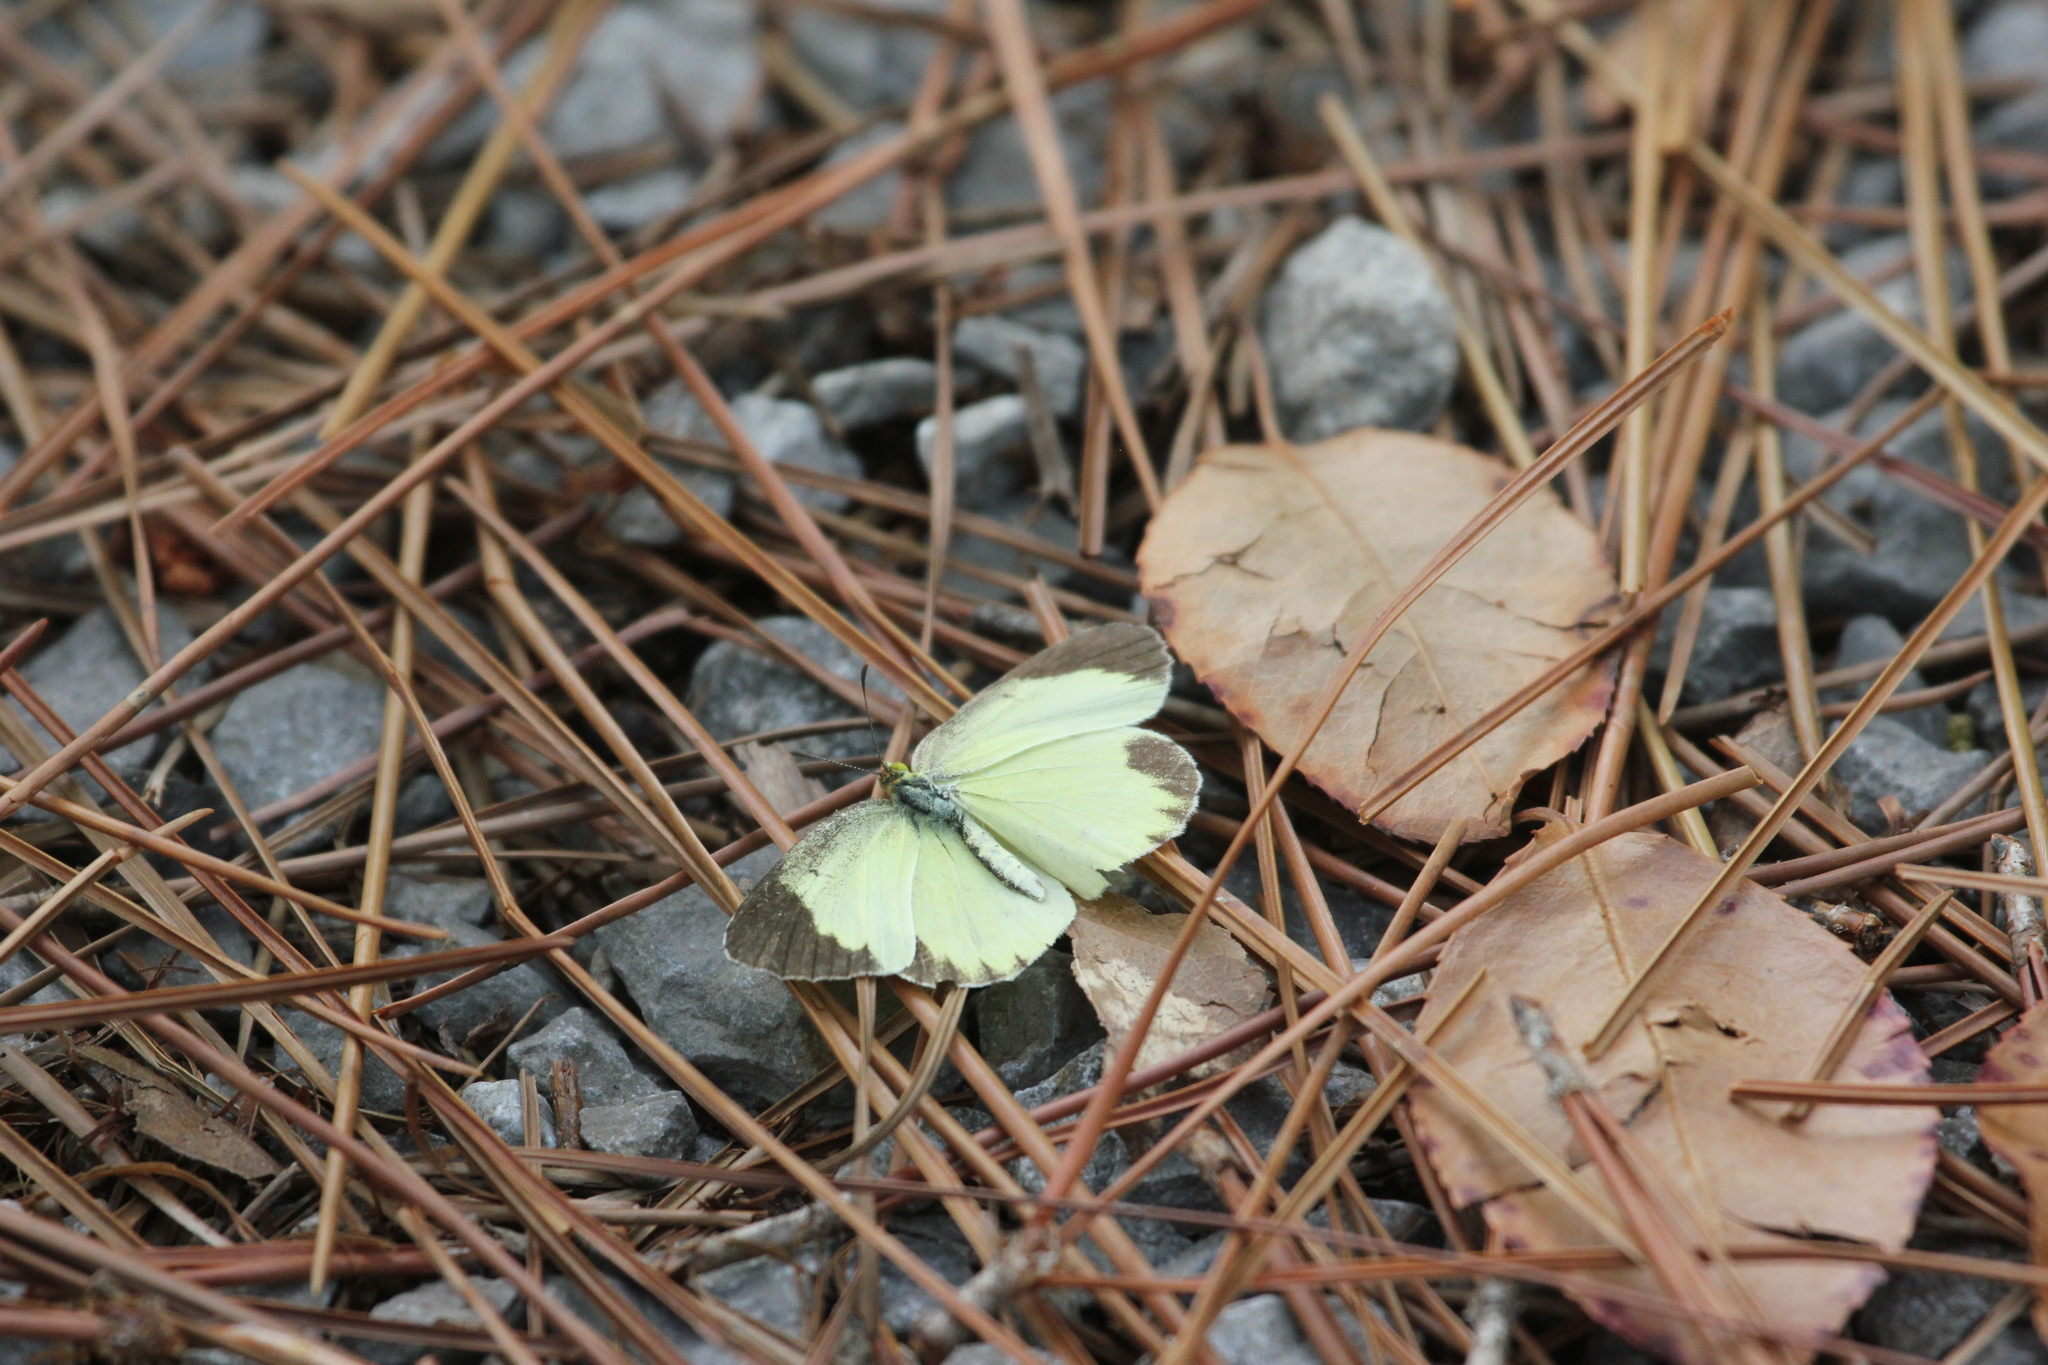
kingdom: Animalia
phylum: Arthropoda
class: Insecta
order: Lepidoptera
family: Pieridae
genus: Pyrisitia
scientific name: Pyrisitia lisa
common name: Little yellow
